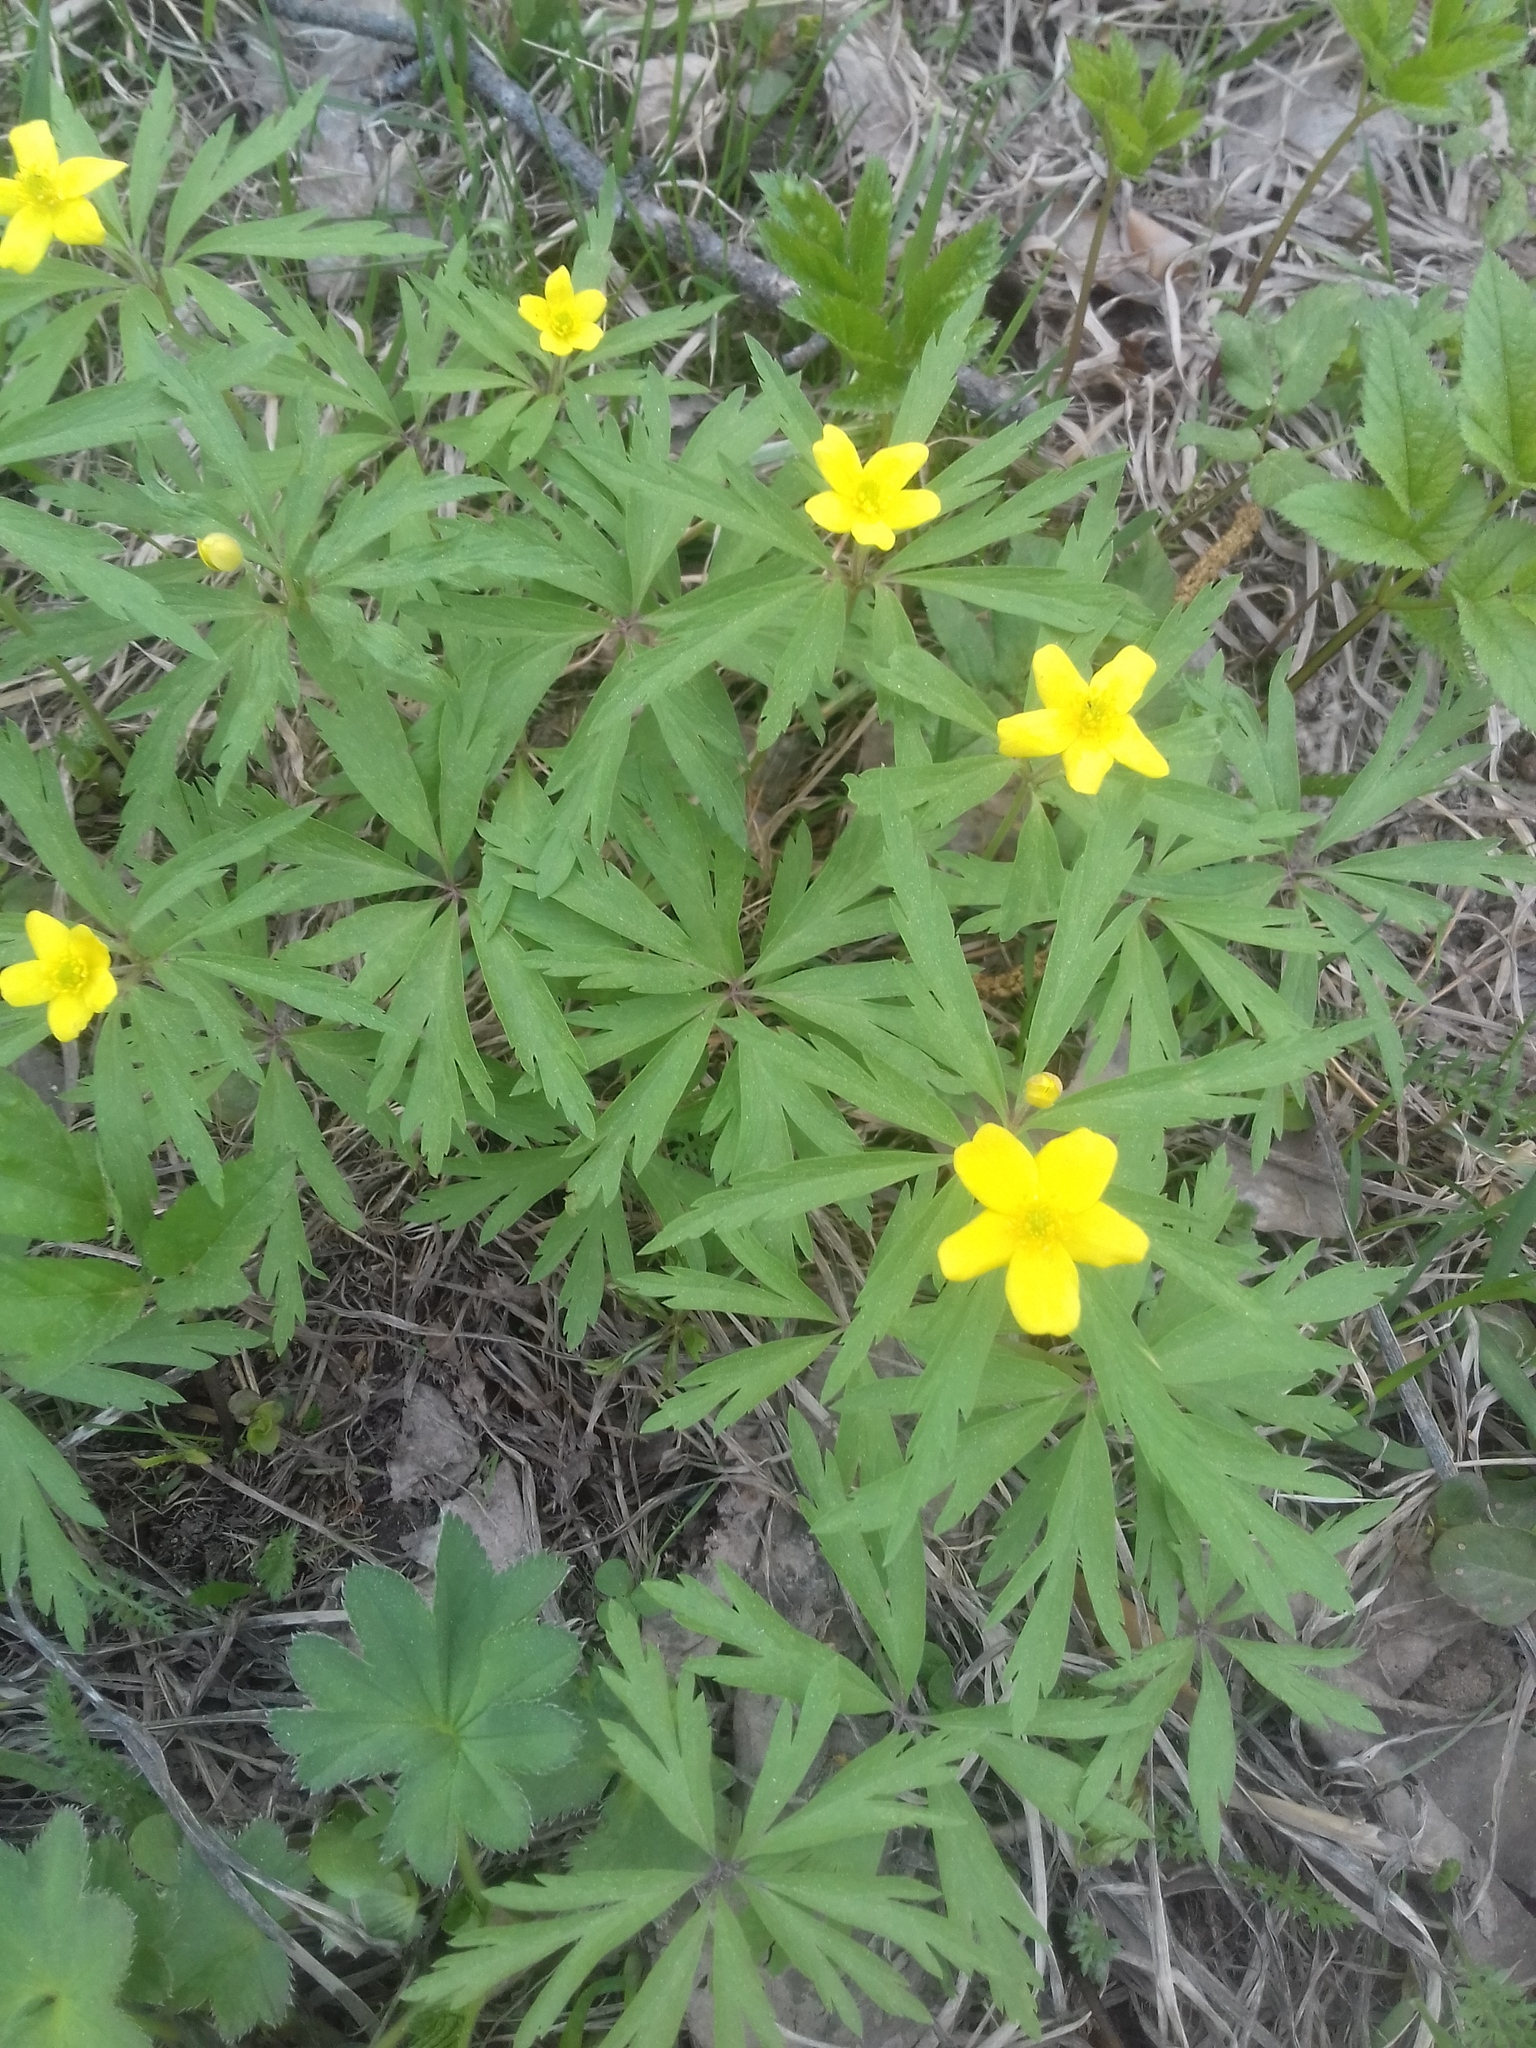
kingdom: Plantae
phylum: Tracheophyta
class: Magnoliopsida
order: Ranunculales
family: Ranunculaceae
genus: Anemone
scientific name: Anemone ranunculoides
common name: Yellow anemone
